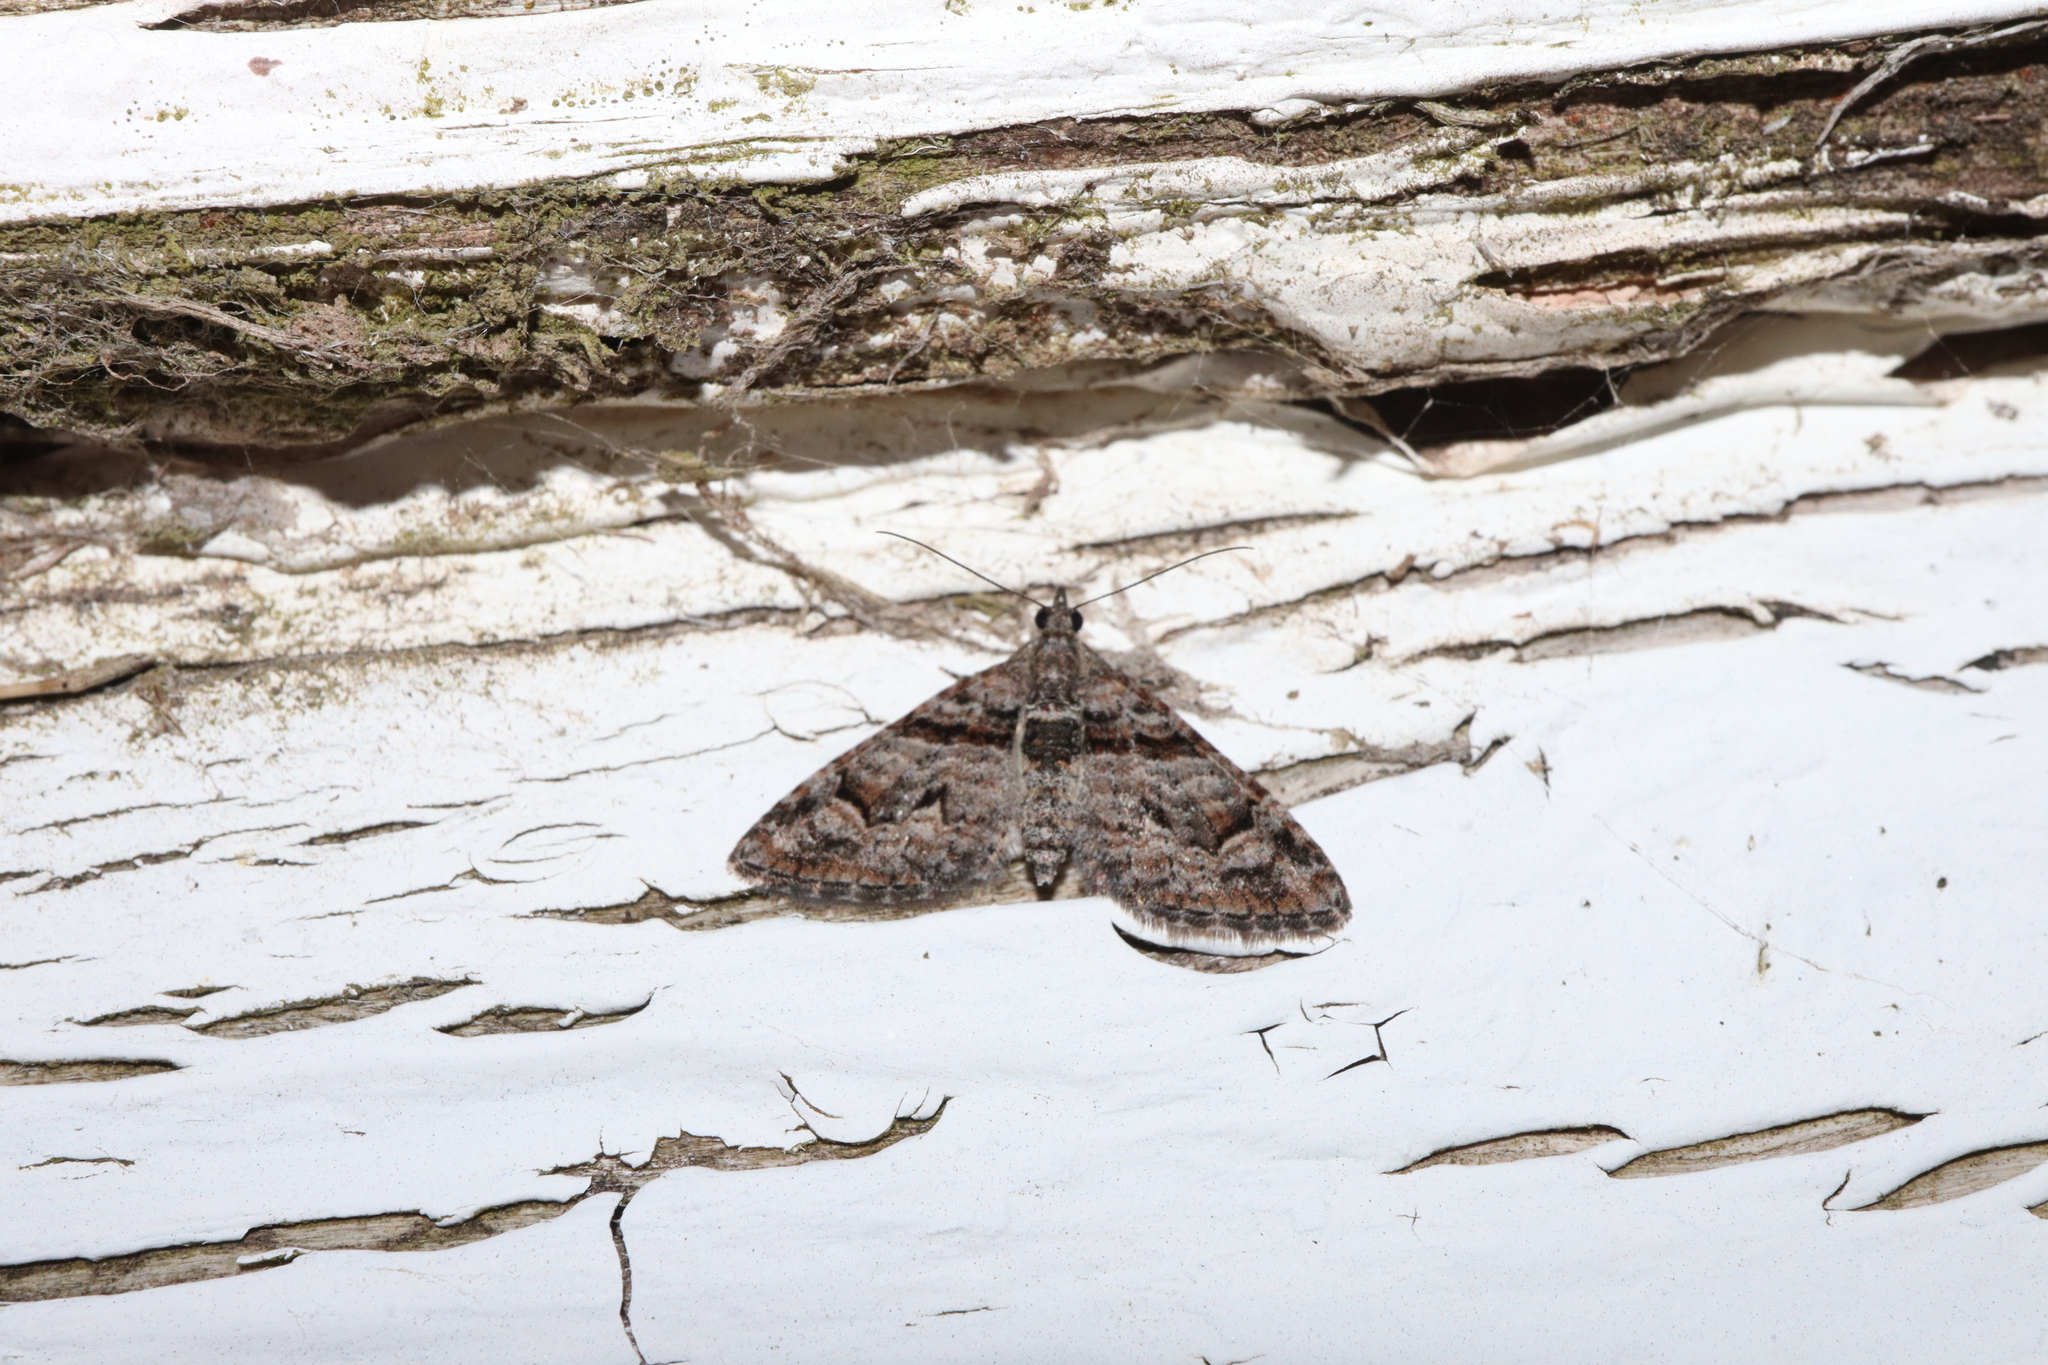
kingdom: Animalia
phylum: Arthropoda
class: Insecta
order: Lepidoptera
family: Geometridae
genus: Phrissogonus
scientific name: Phrissogonus laticostata
